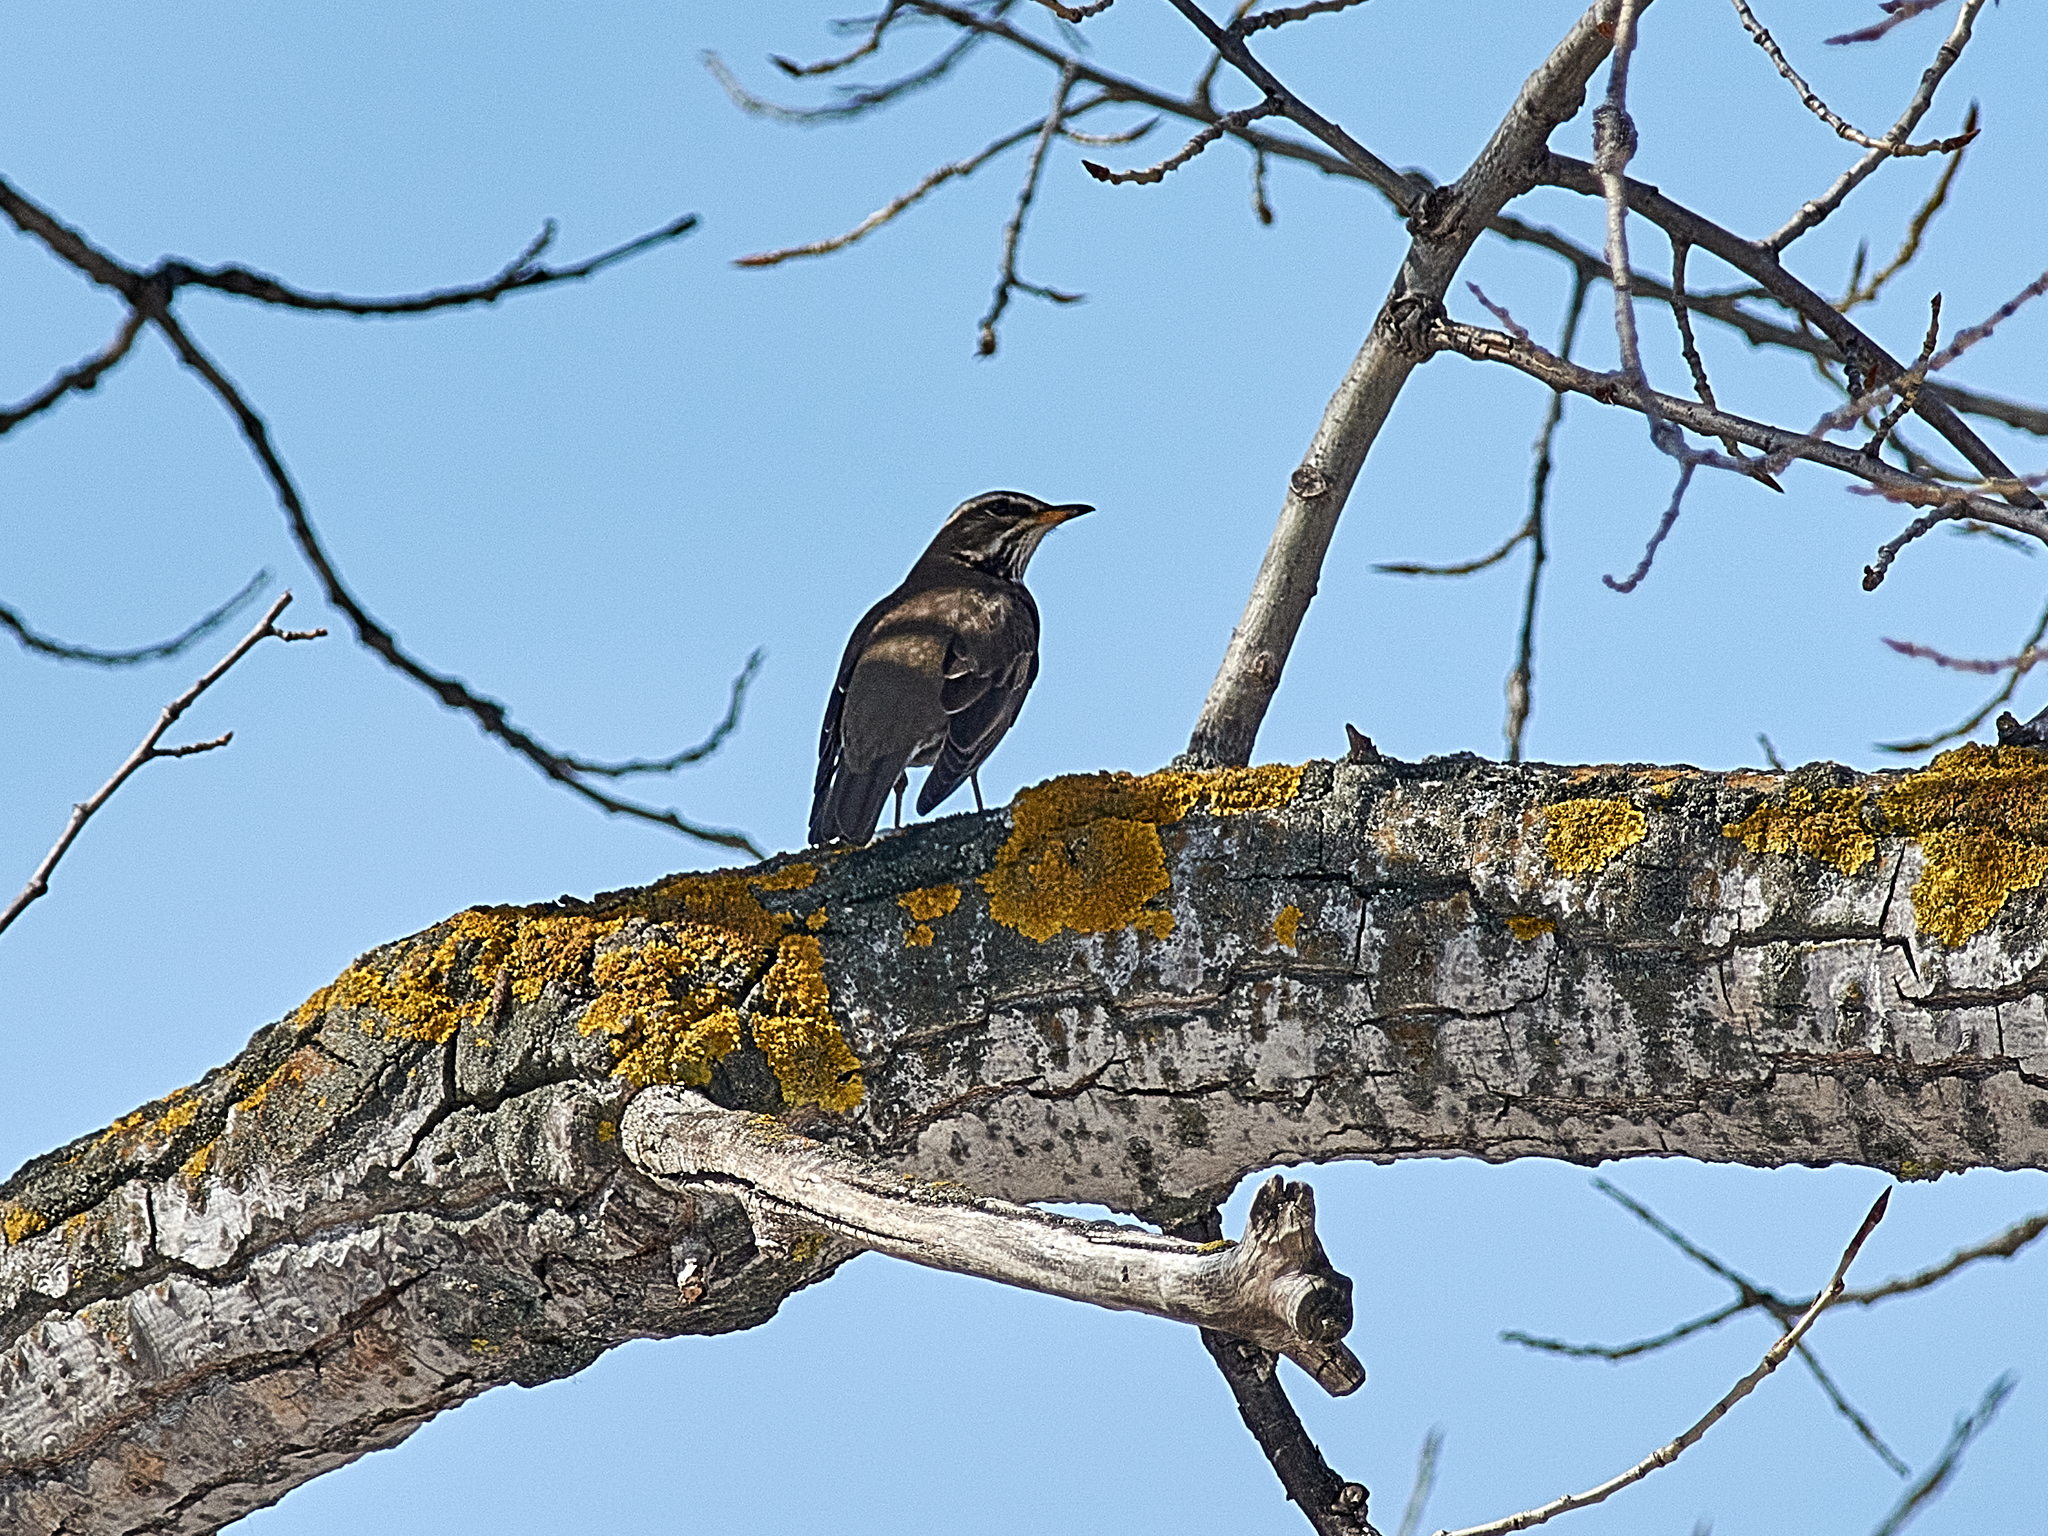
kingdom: Animalia
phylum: Chordata
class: Aves
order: Passeriformes
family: Turdidae
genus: Turdus
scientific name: Turdus iliacus
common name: Redwing
